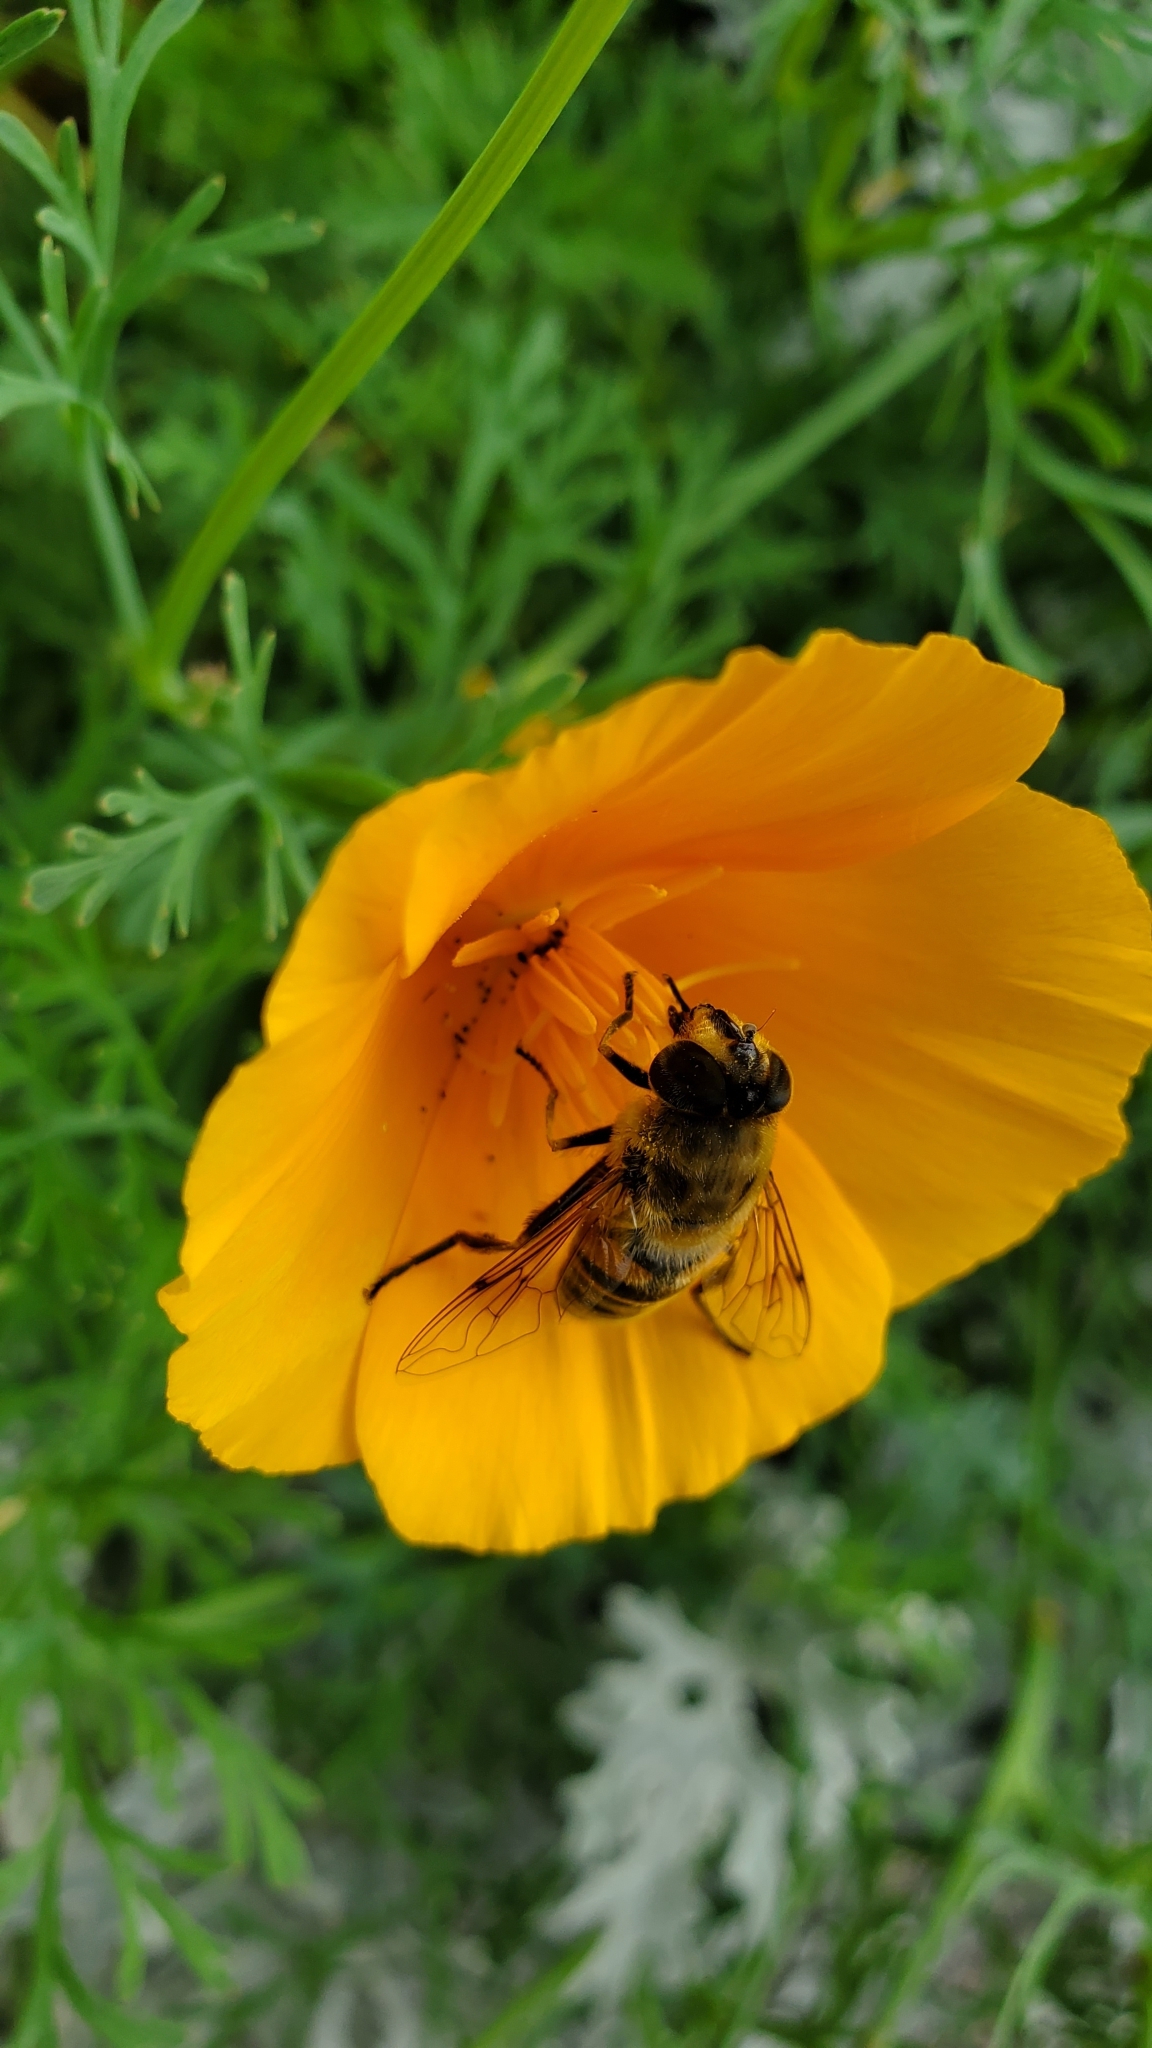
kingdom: Animalia
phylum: Arthropoda
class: Insecta
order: Diptera
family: Syrphidae
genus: Eristalis
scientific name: Eristalis tenax
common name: Drone fly
